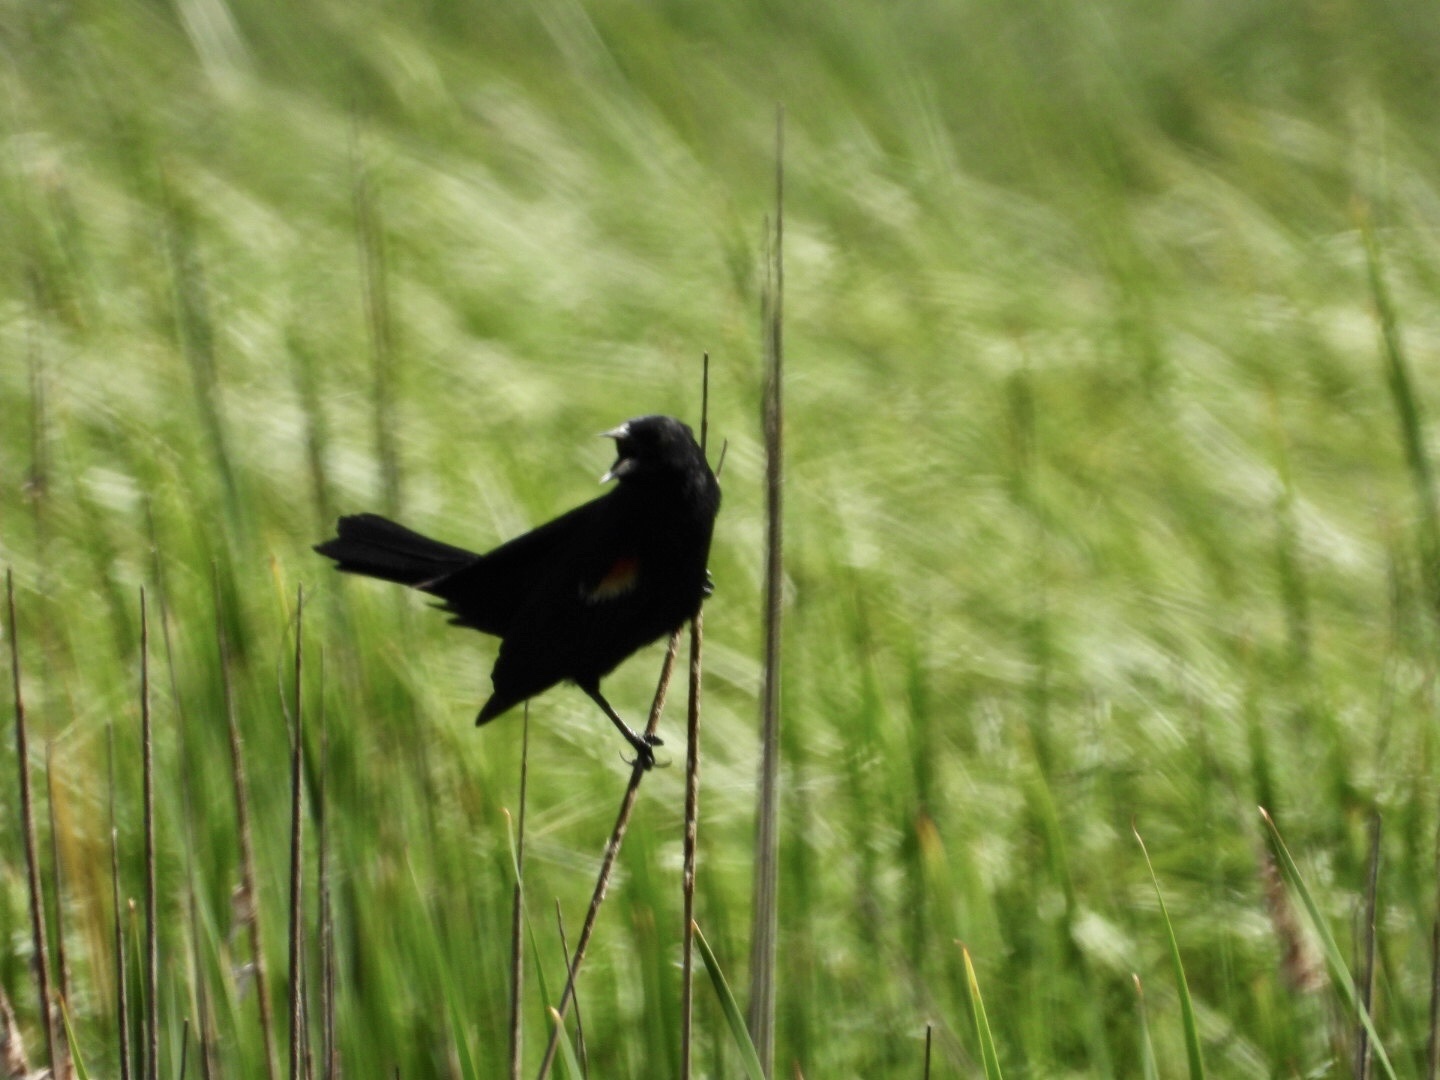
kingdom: Animalia
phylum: Chordata
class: Aves
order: Passeriformes
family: Icteridae
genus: Agelaius
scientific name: Agelaius phoeniceus
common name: Red-winged blackbird
